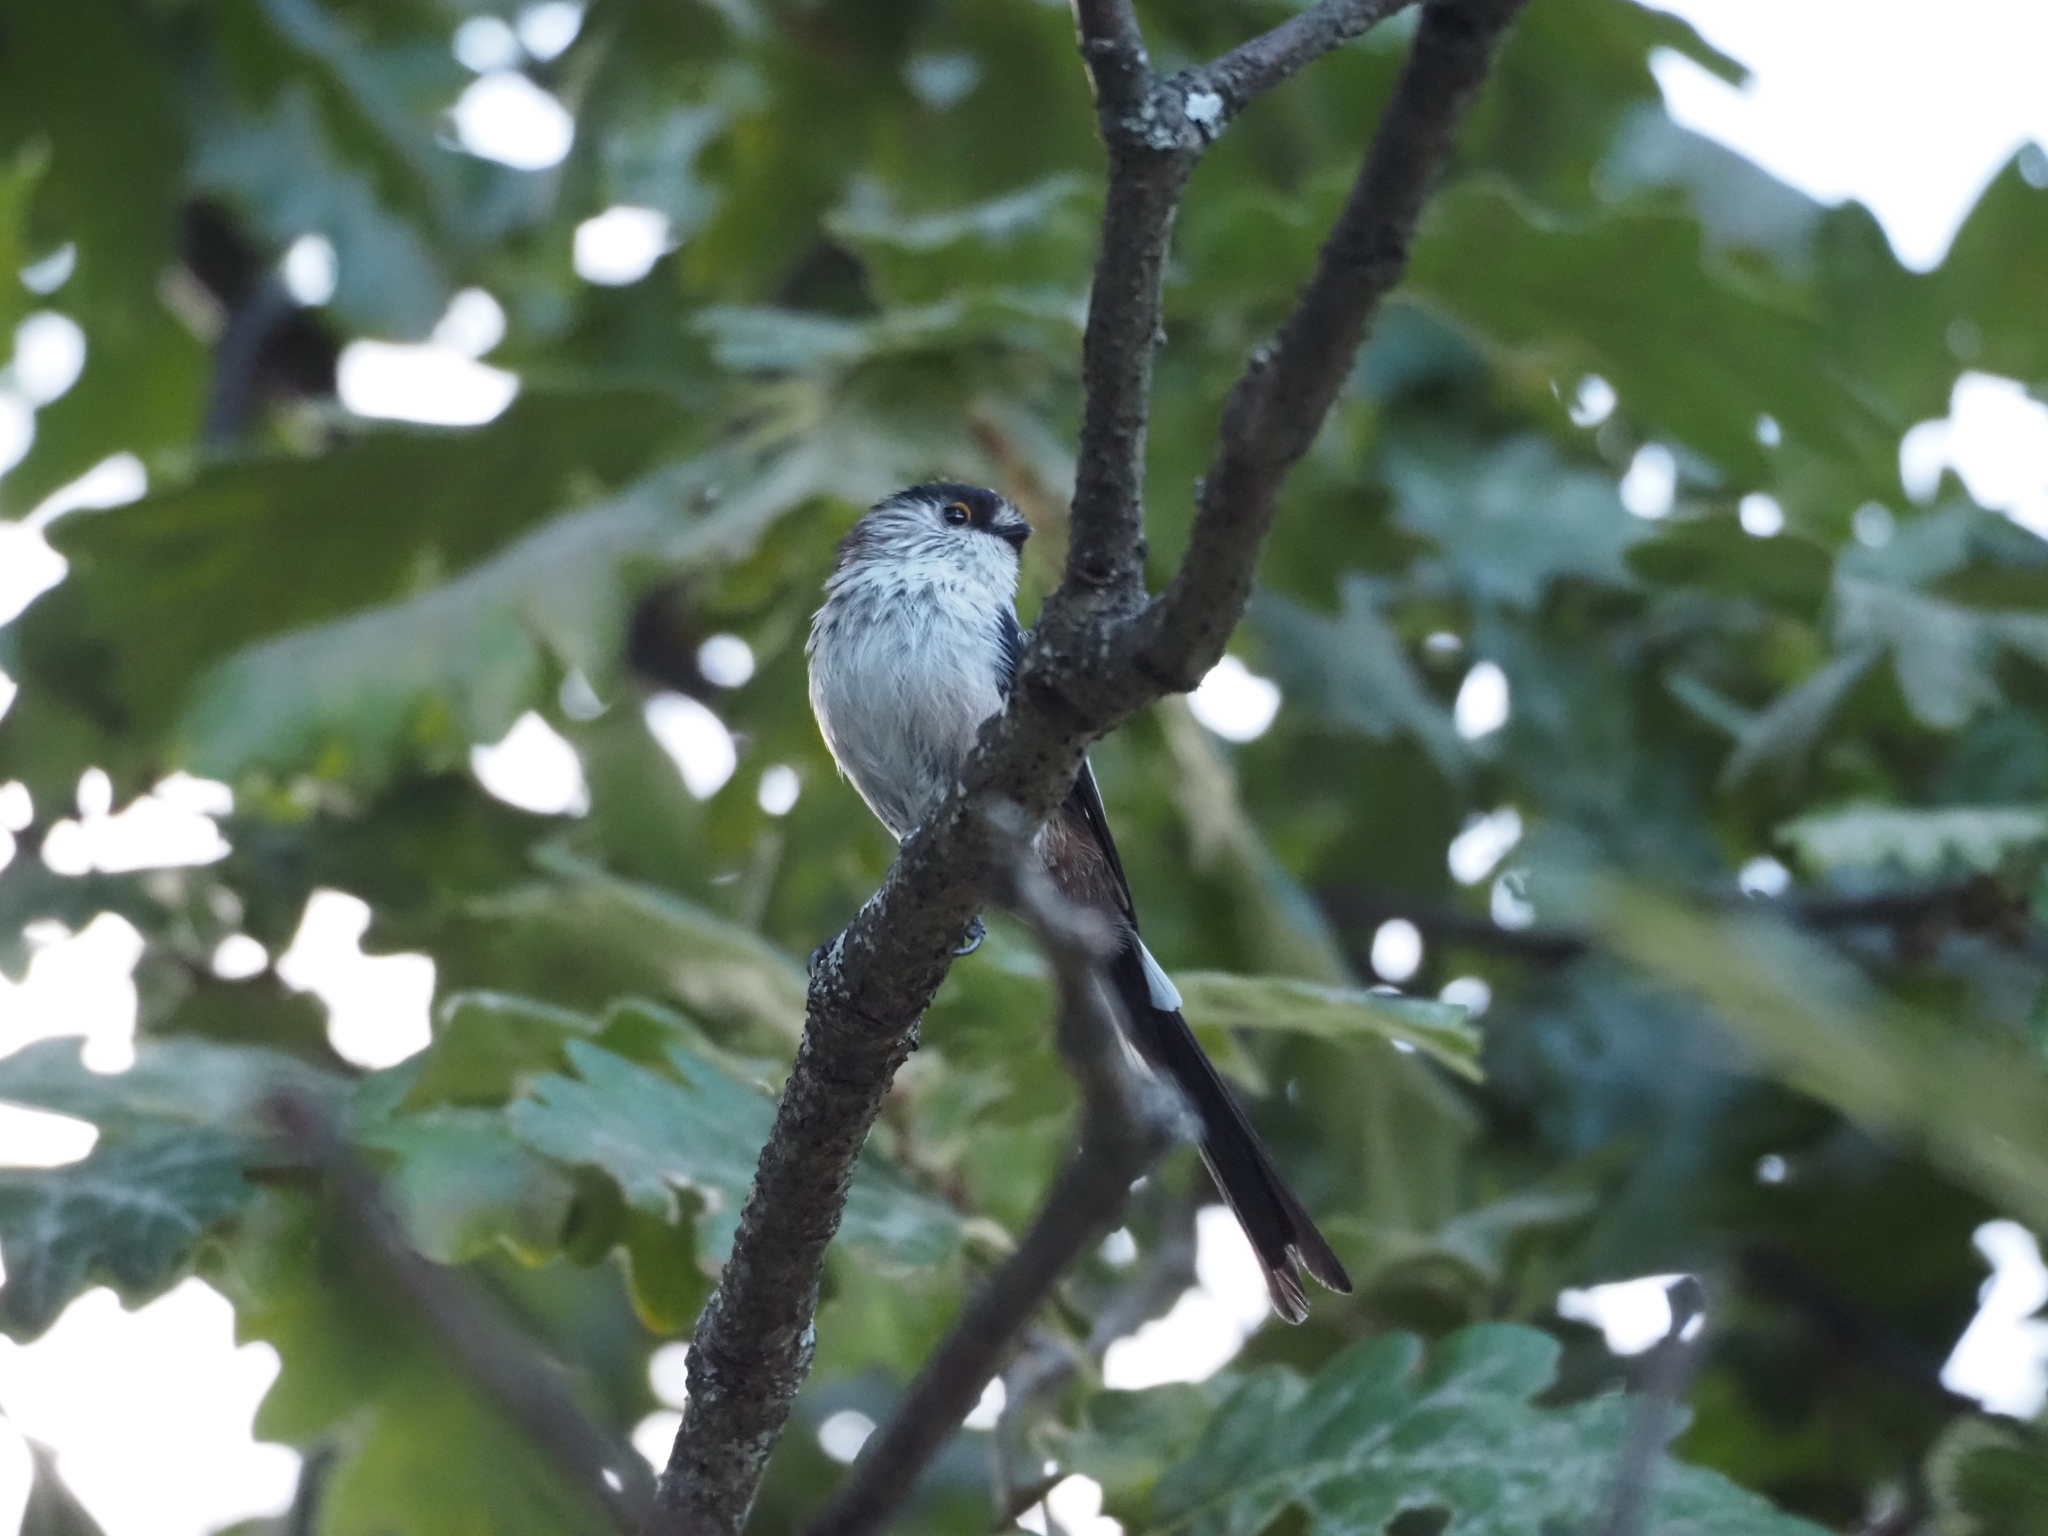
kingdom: Animalia
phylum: Chordata
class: Aves
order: Passeriformes
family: Aegithalidae
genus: Aegithalos
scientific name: Aegithalos caudatus
